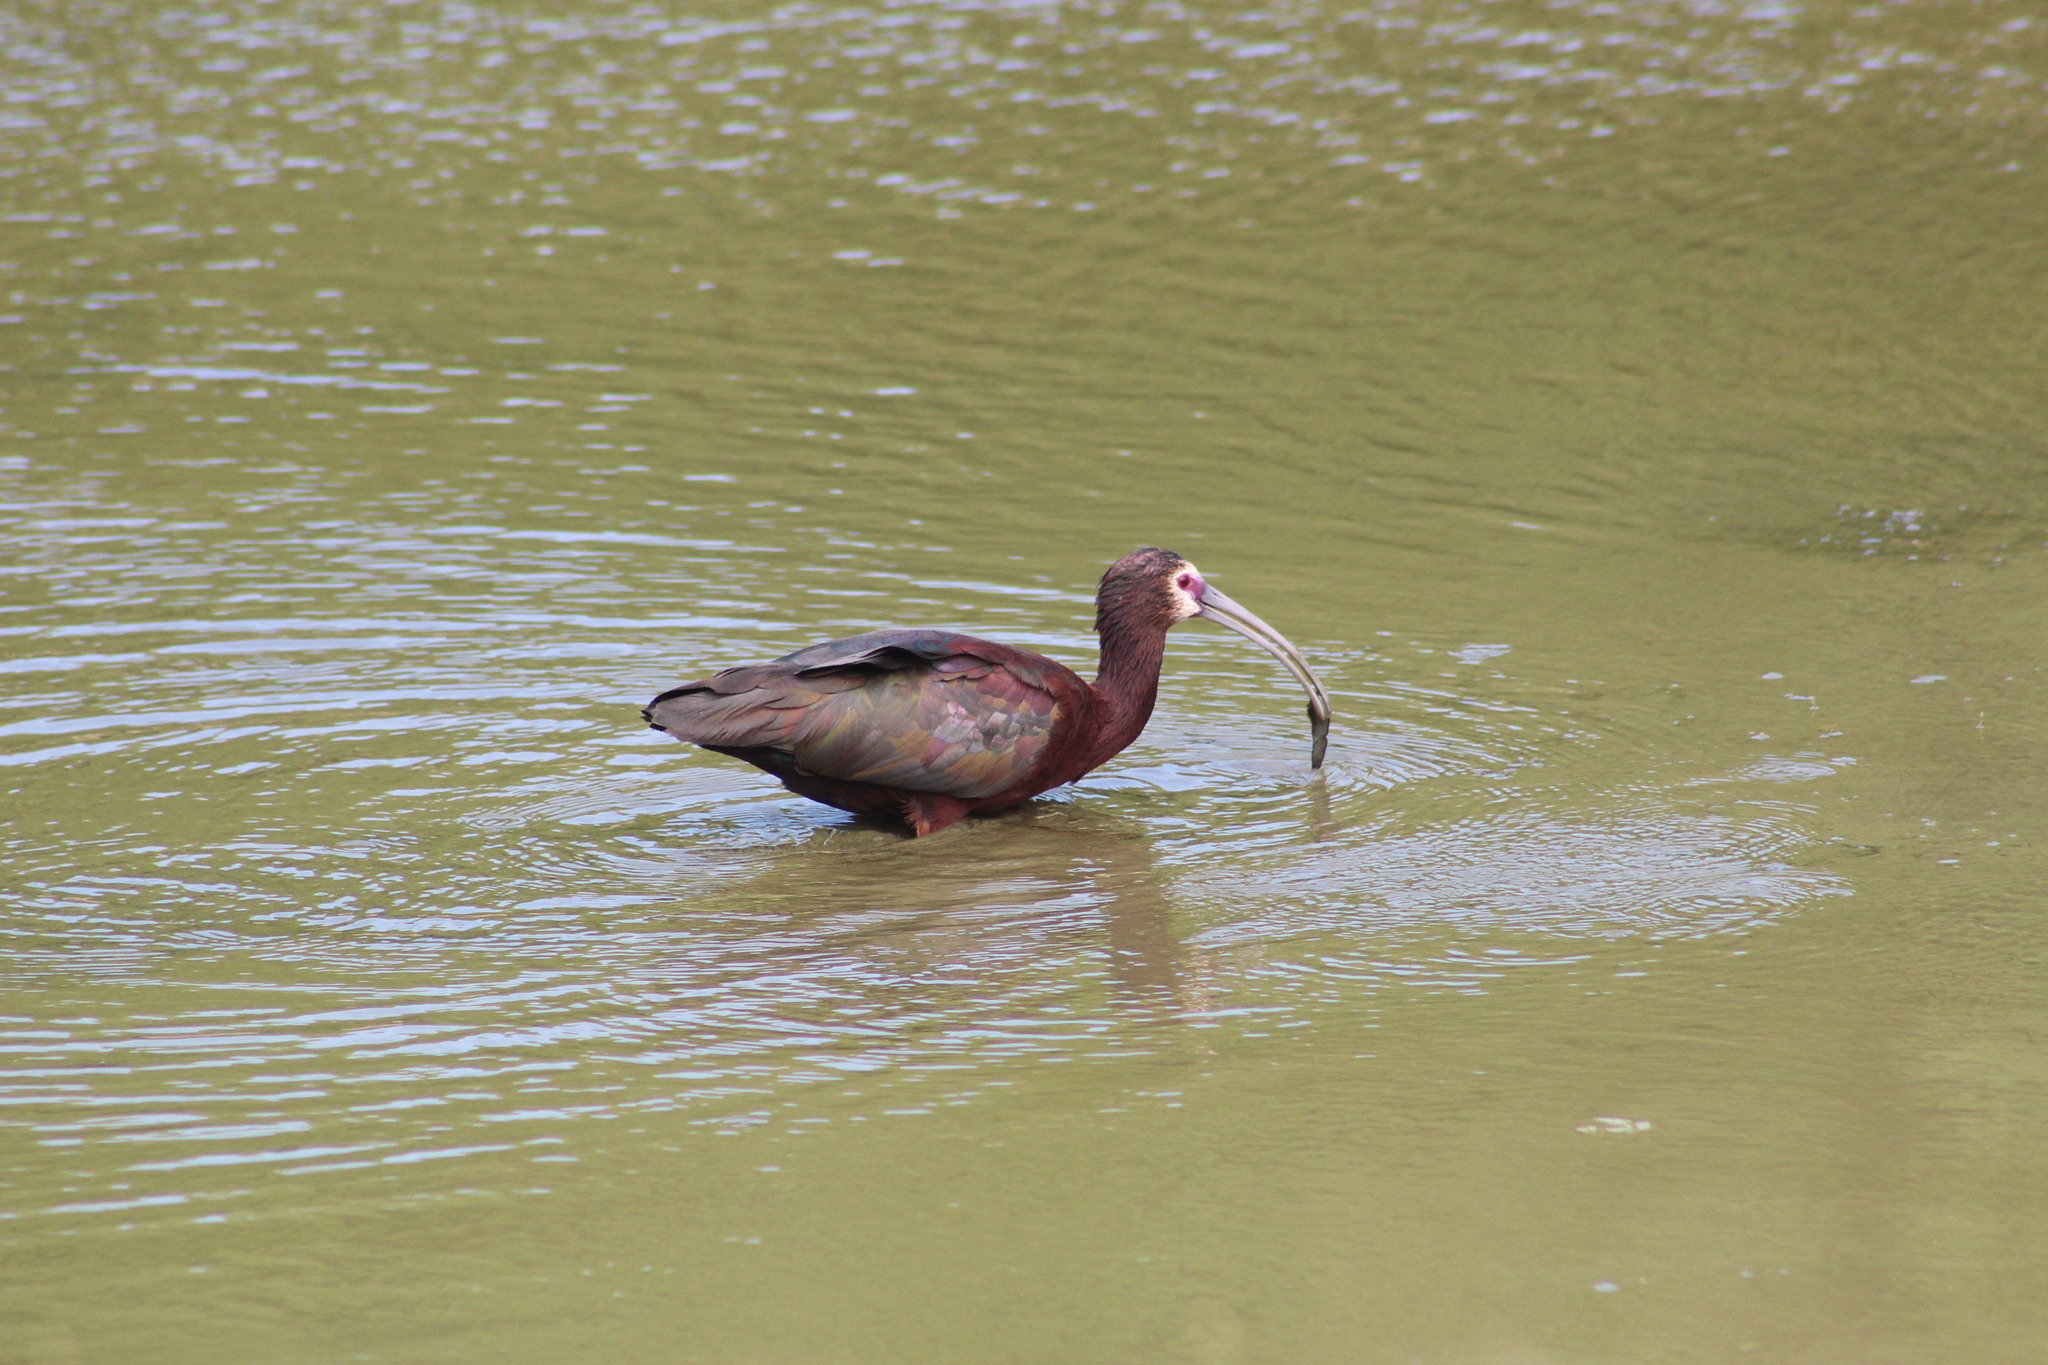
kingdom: Animalia
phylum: Chordata
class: Aves
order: Pelecaniformes
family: Threskiornithidae
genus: Plegadis
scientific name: Plegadis chihi
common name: White-faced ibis
